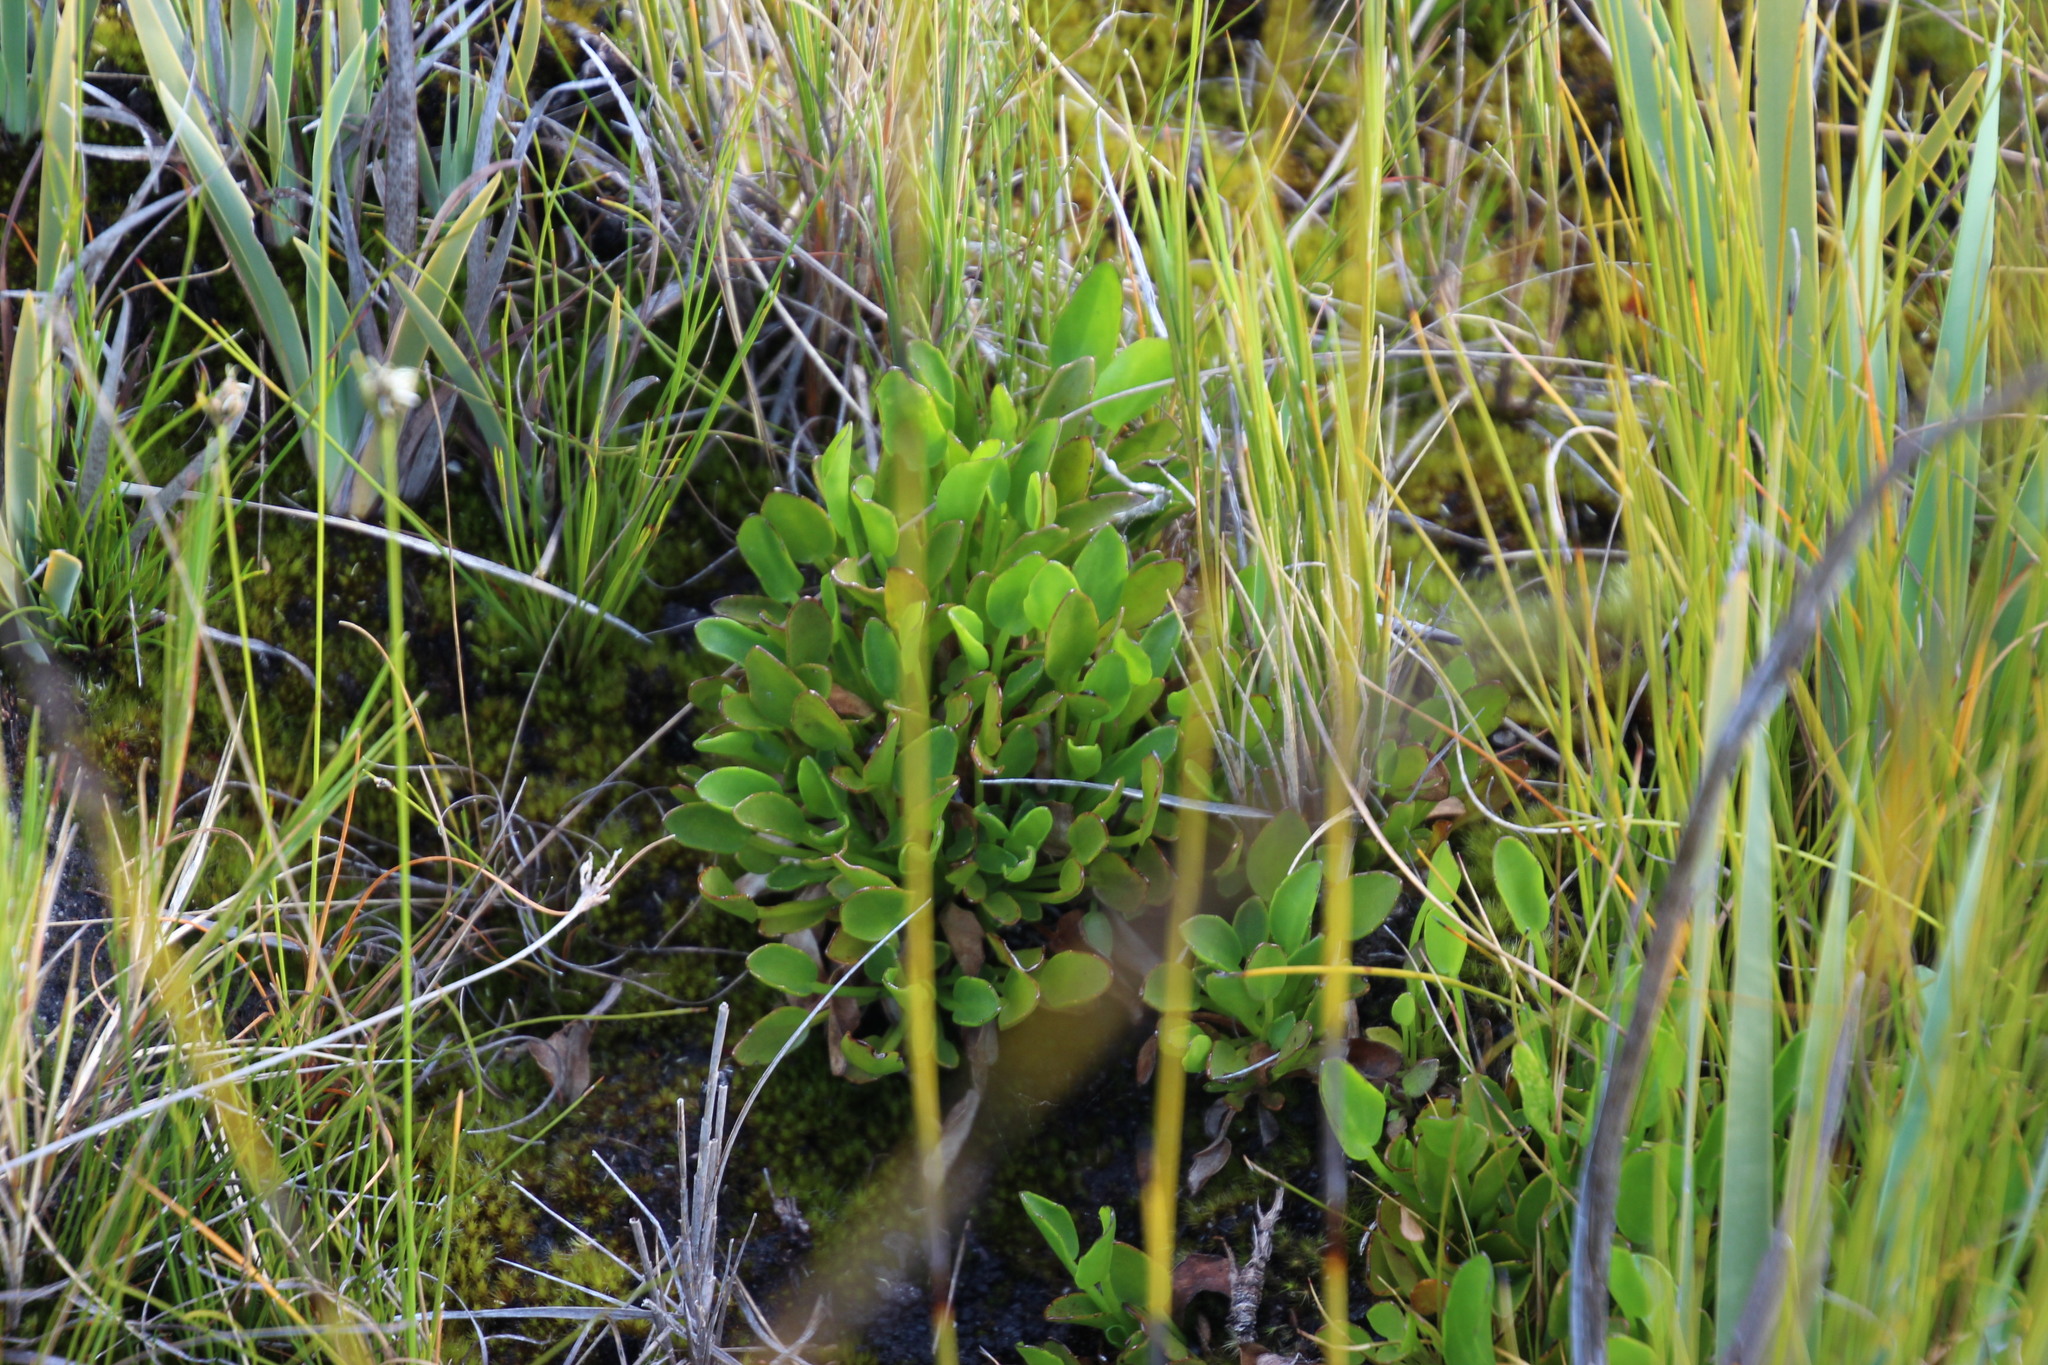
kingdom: Plantae
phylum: Tracheophyta
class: Magnoliopsida
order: Asterales
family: Menyanthaceae
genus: Villarsia
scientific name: Villarsia capensis
